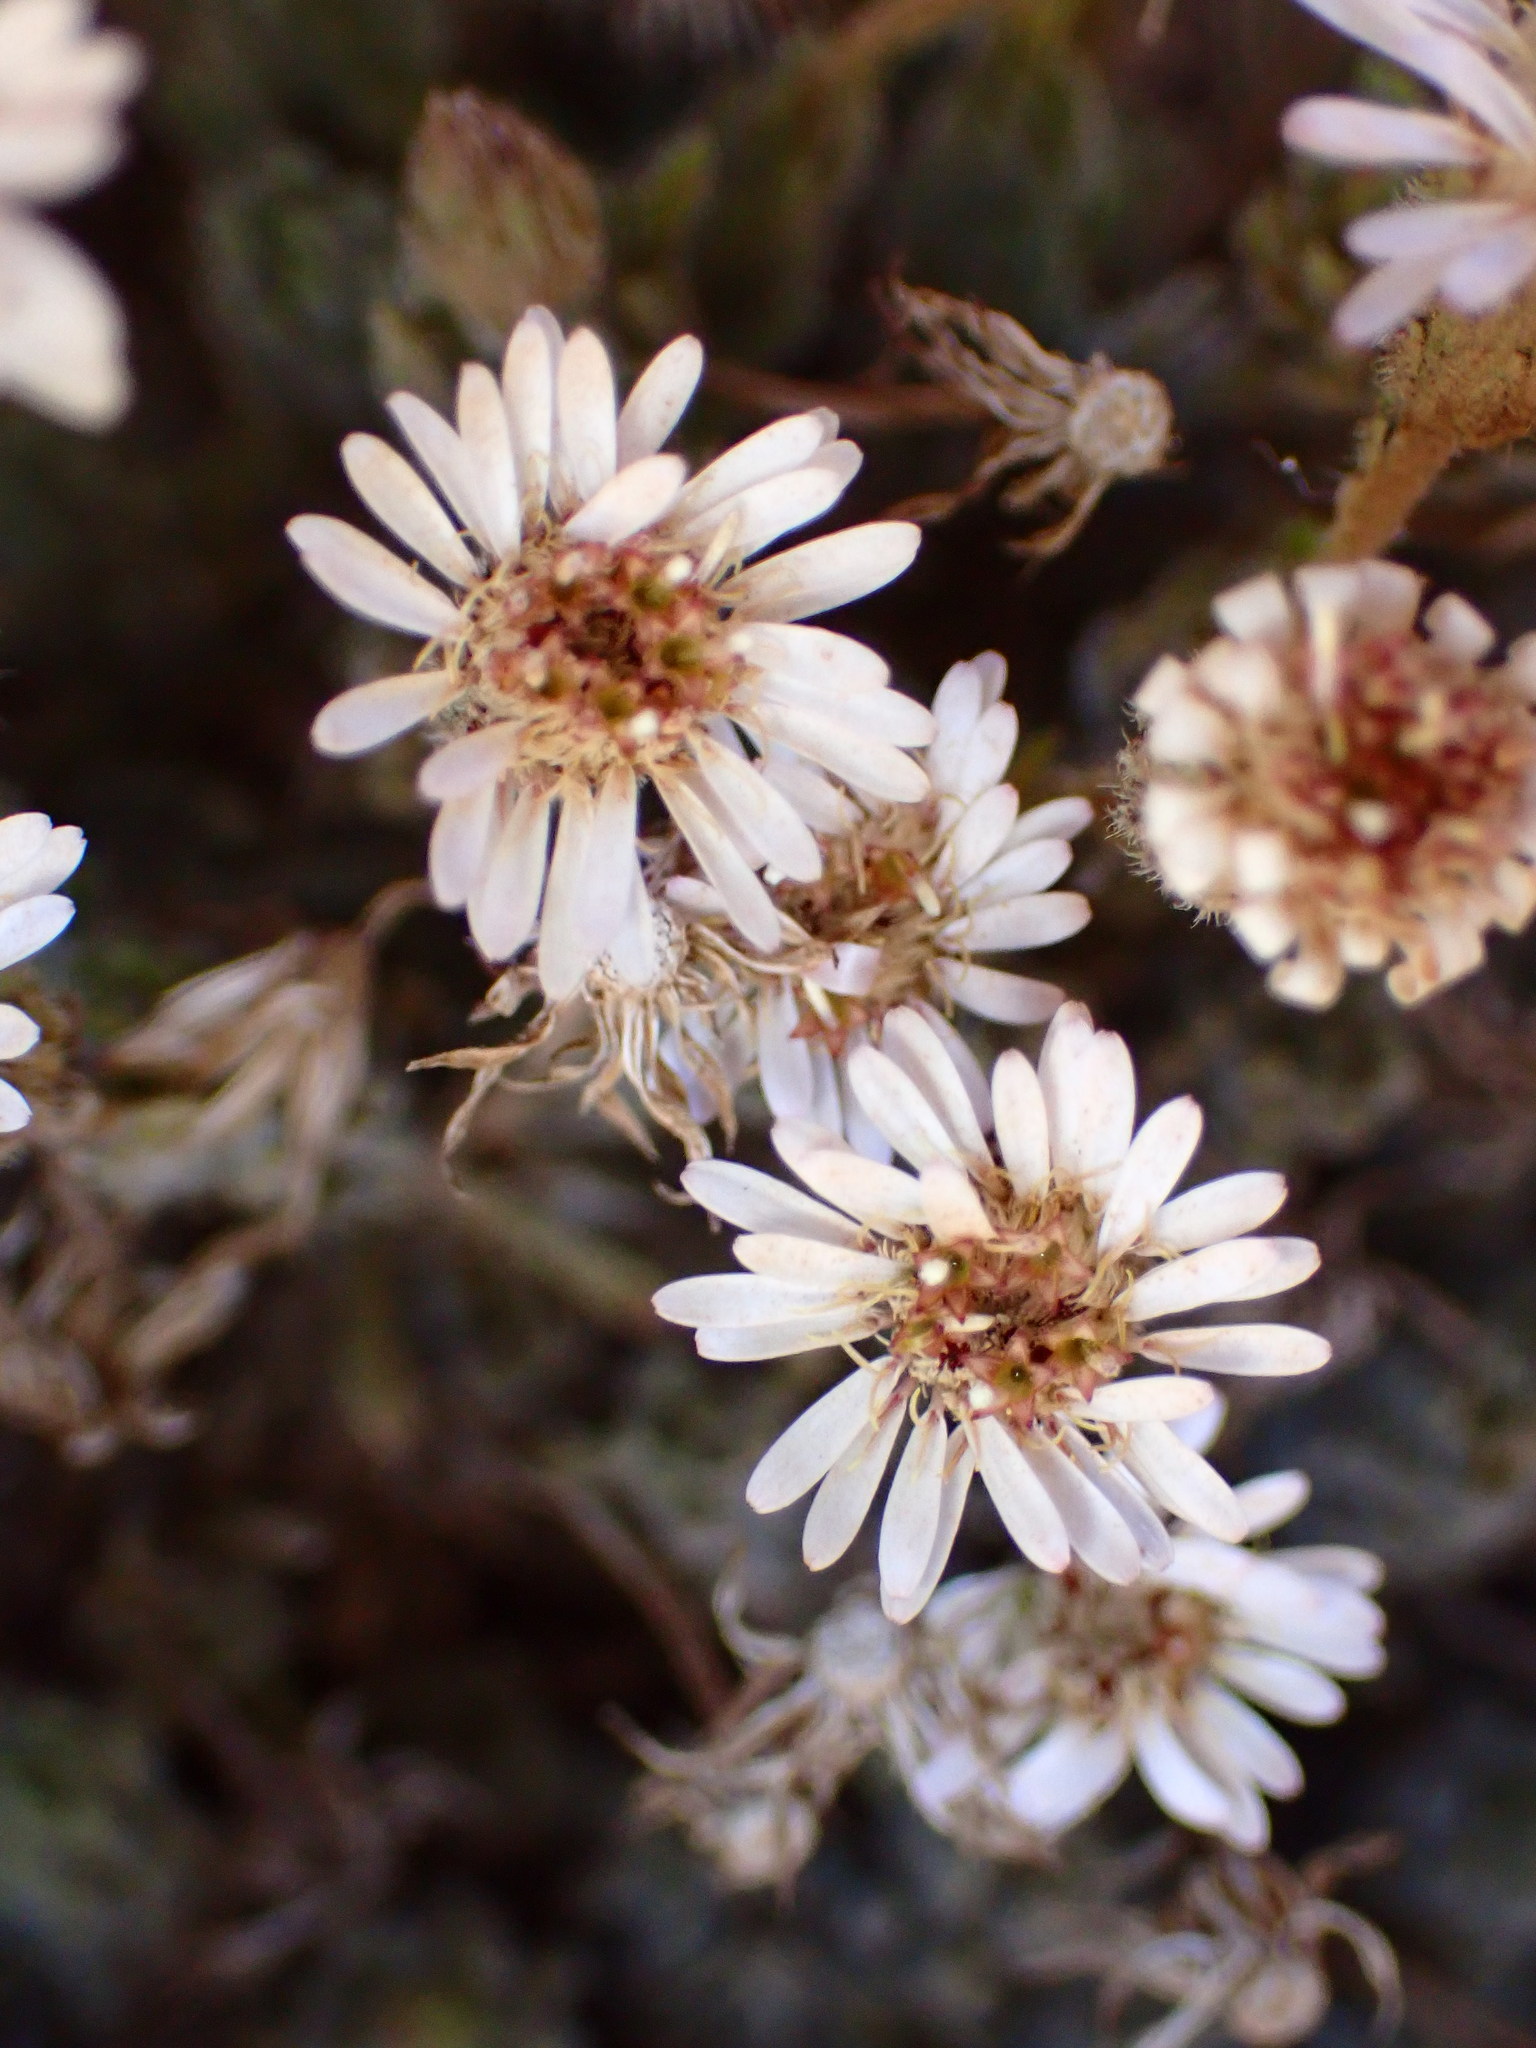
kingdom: Plantae
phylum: Tracheophyta
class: Magnoliopsida
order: Asterales
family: Asteraceae
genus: Tetramolopium
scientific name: Tetramolopium humile
